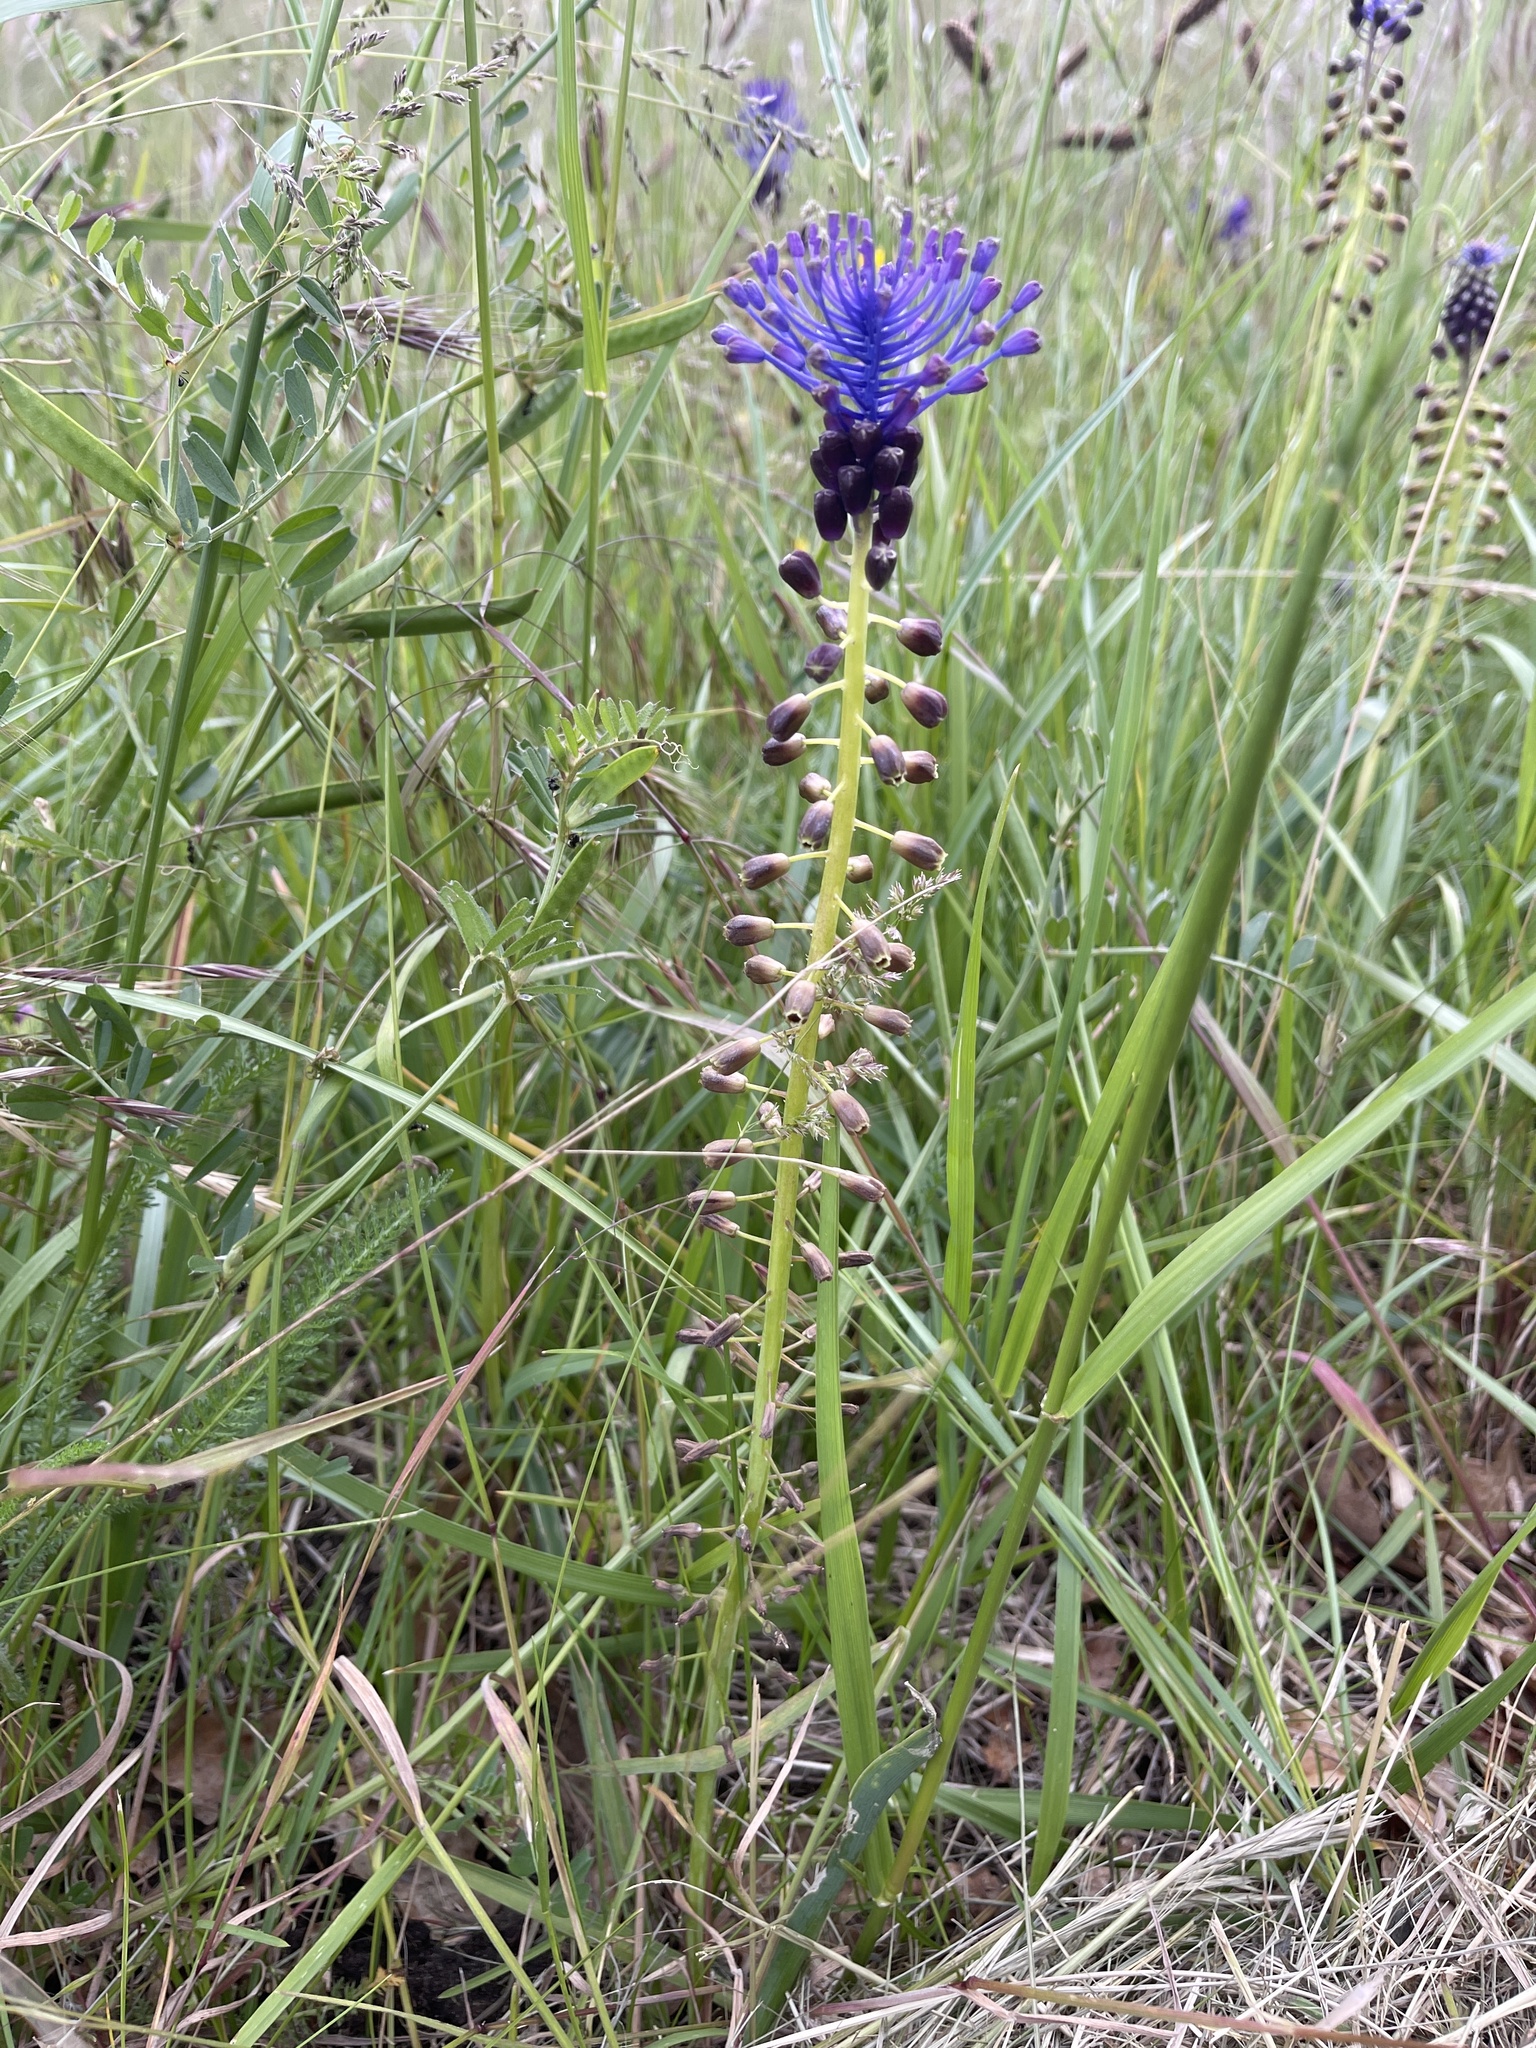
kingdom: Plantae
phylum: Tracheophyta
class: Liliopsida
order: Asparagales
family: Asparagaceae
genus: Muscari
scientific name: Muscari comosum
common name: Tassel hyacinth
